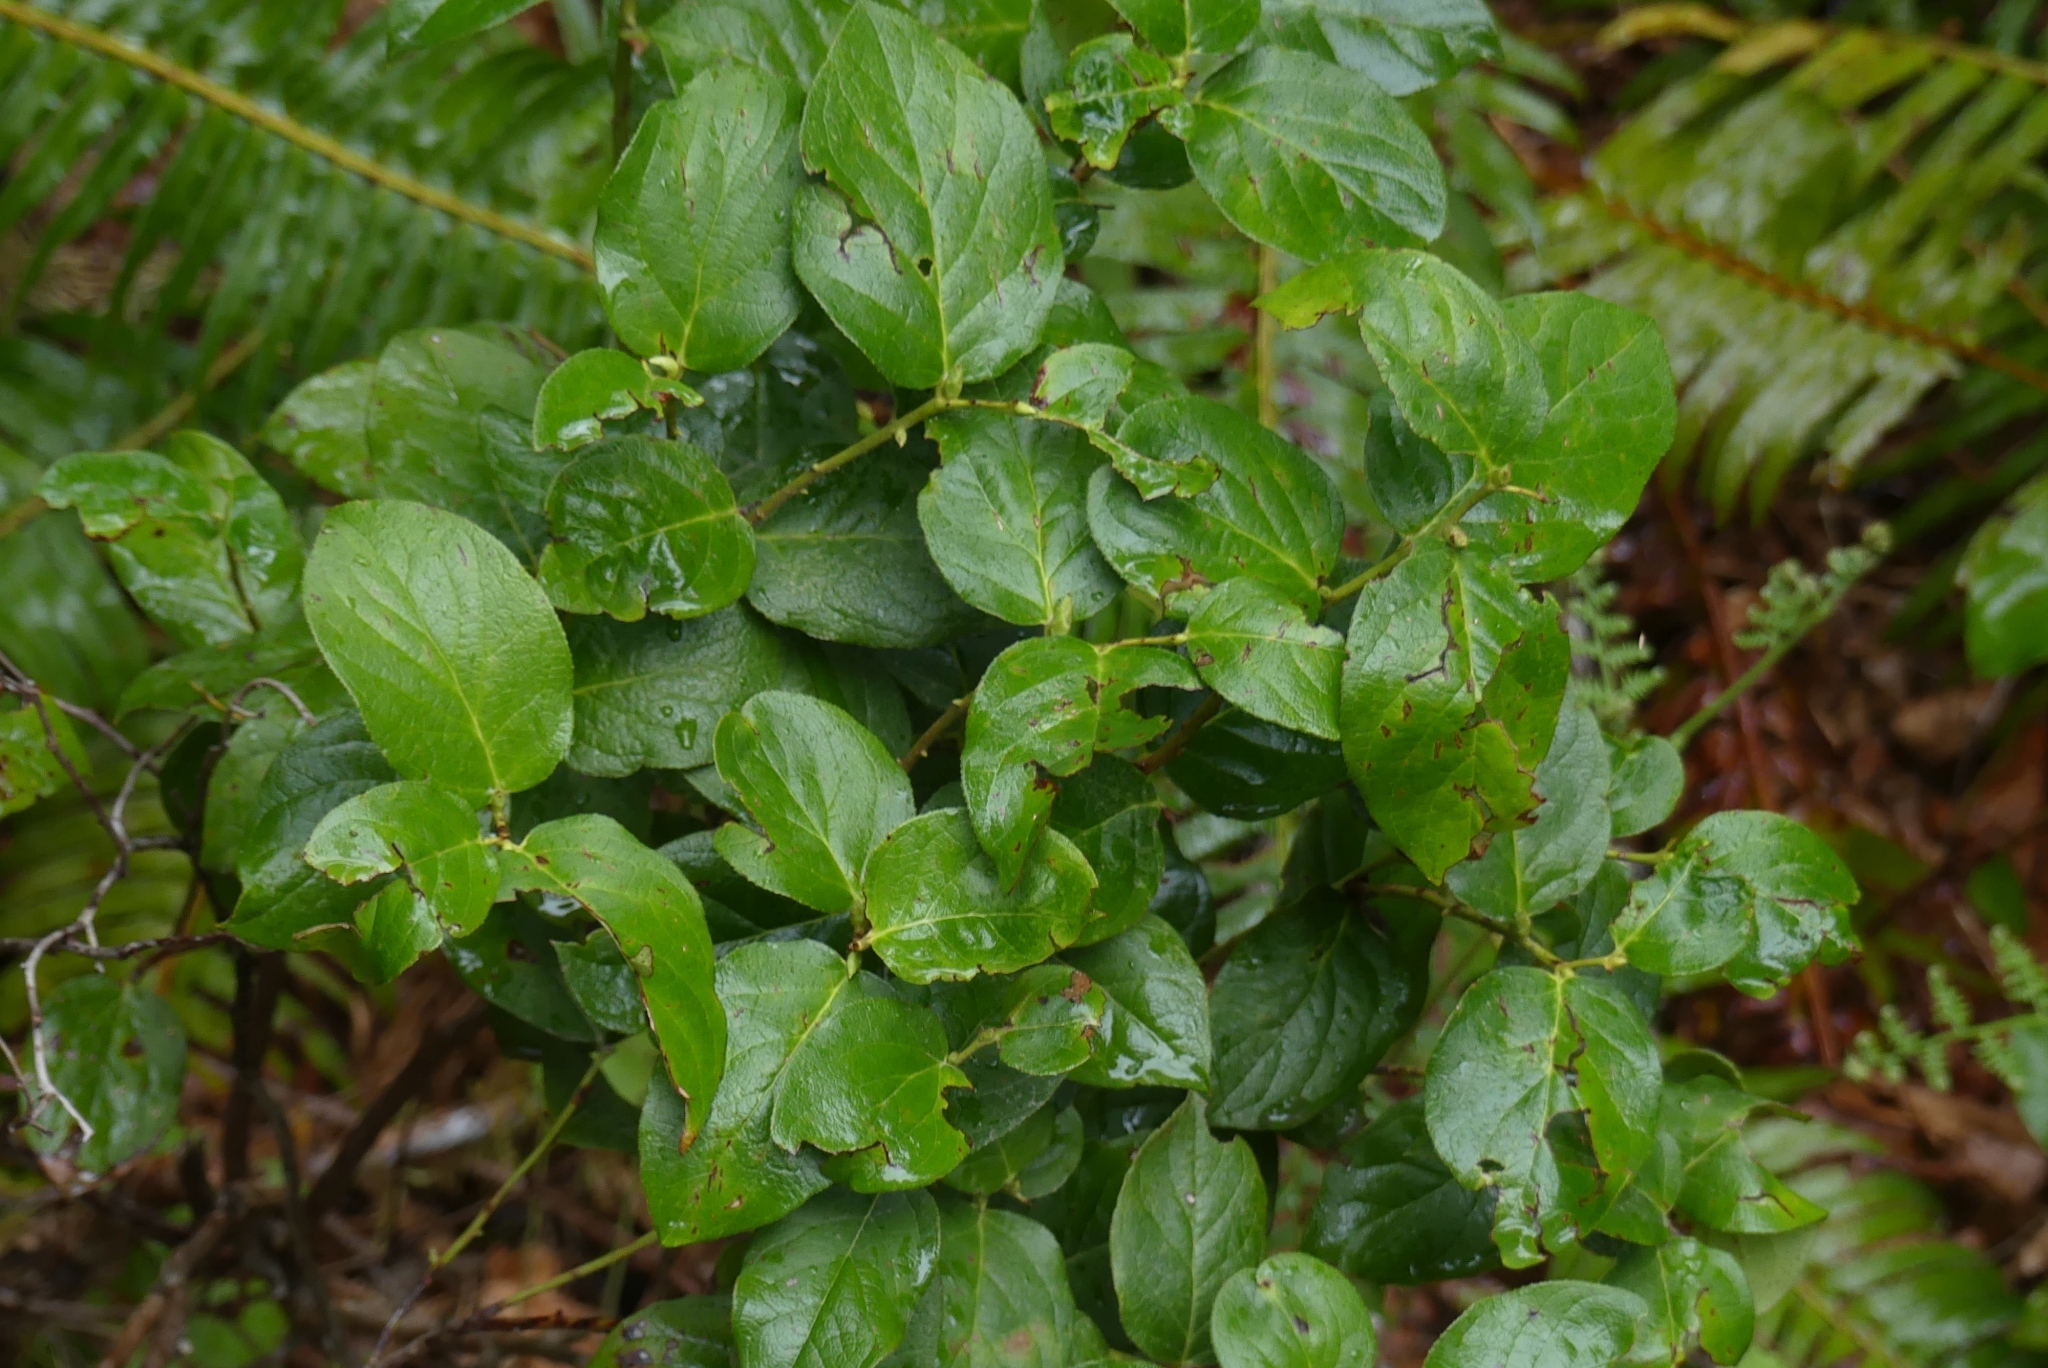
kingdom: Plantae
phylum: Tracheophyta
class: Magnoliopsida
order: Ericales
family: Ericaceae
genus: Gaultheria
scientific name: Gaultheria shallon
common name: Shallon
